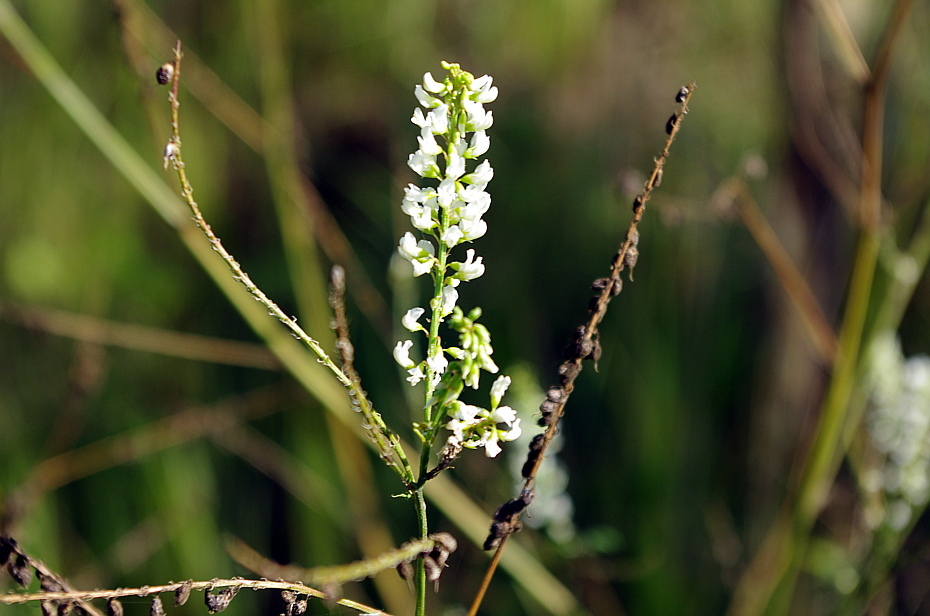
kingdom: Plantae
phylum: Tracheophyta
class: Magnoliopsida
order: Fabales
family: Fabaceae
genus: Melilotus
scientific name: Melilotus albus
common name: White melilot
